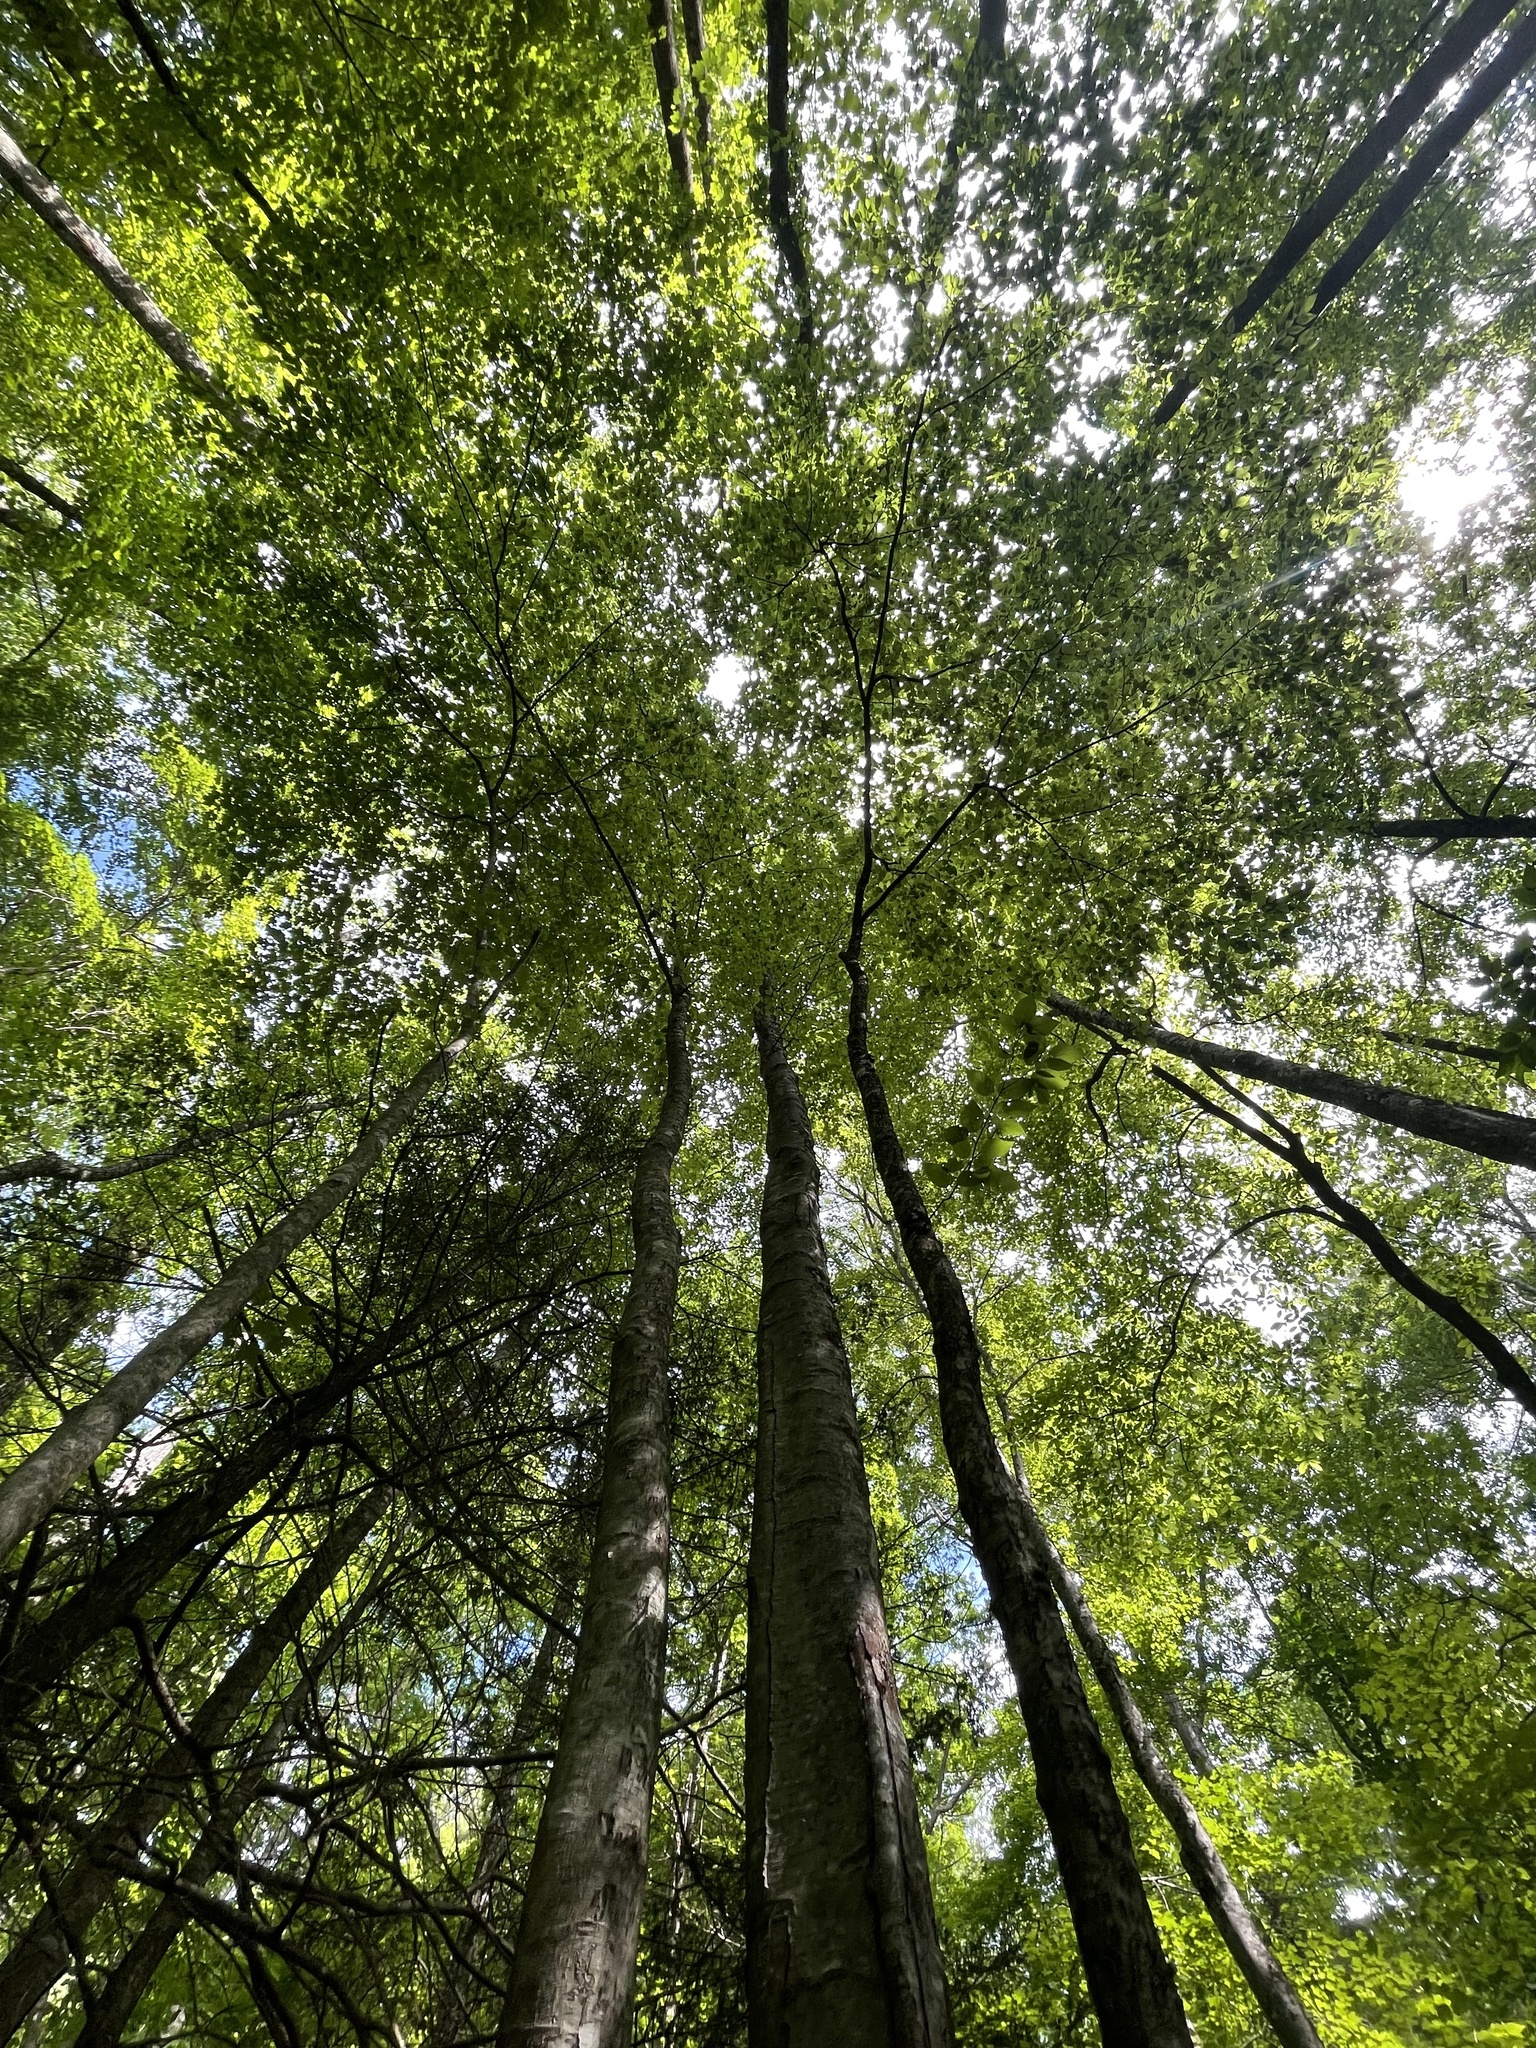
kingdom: Plantae
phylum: Tracheophyta
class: Magnoliopsida
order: Fagales
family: Betulaceae
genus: Betula
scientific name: Betula alleghaniensis
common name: Yellow birch
